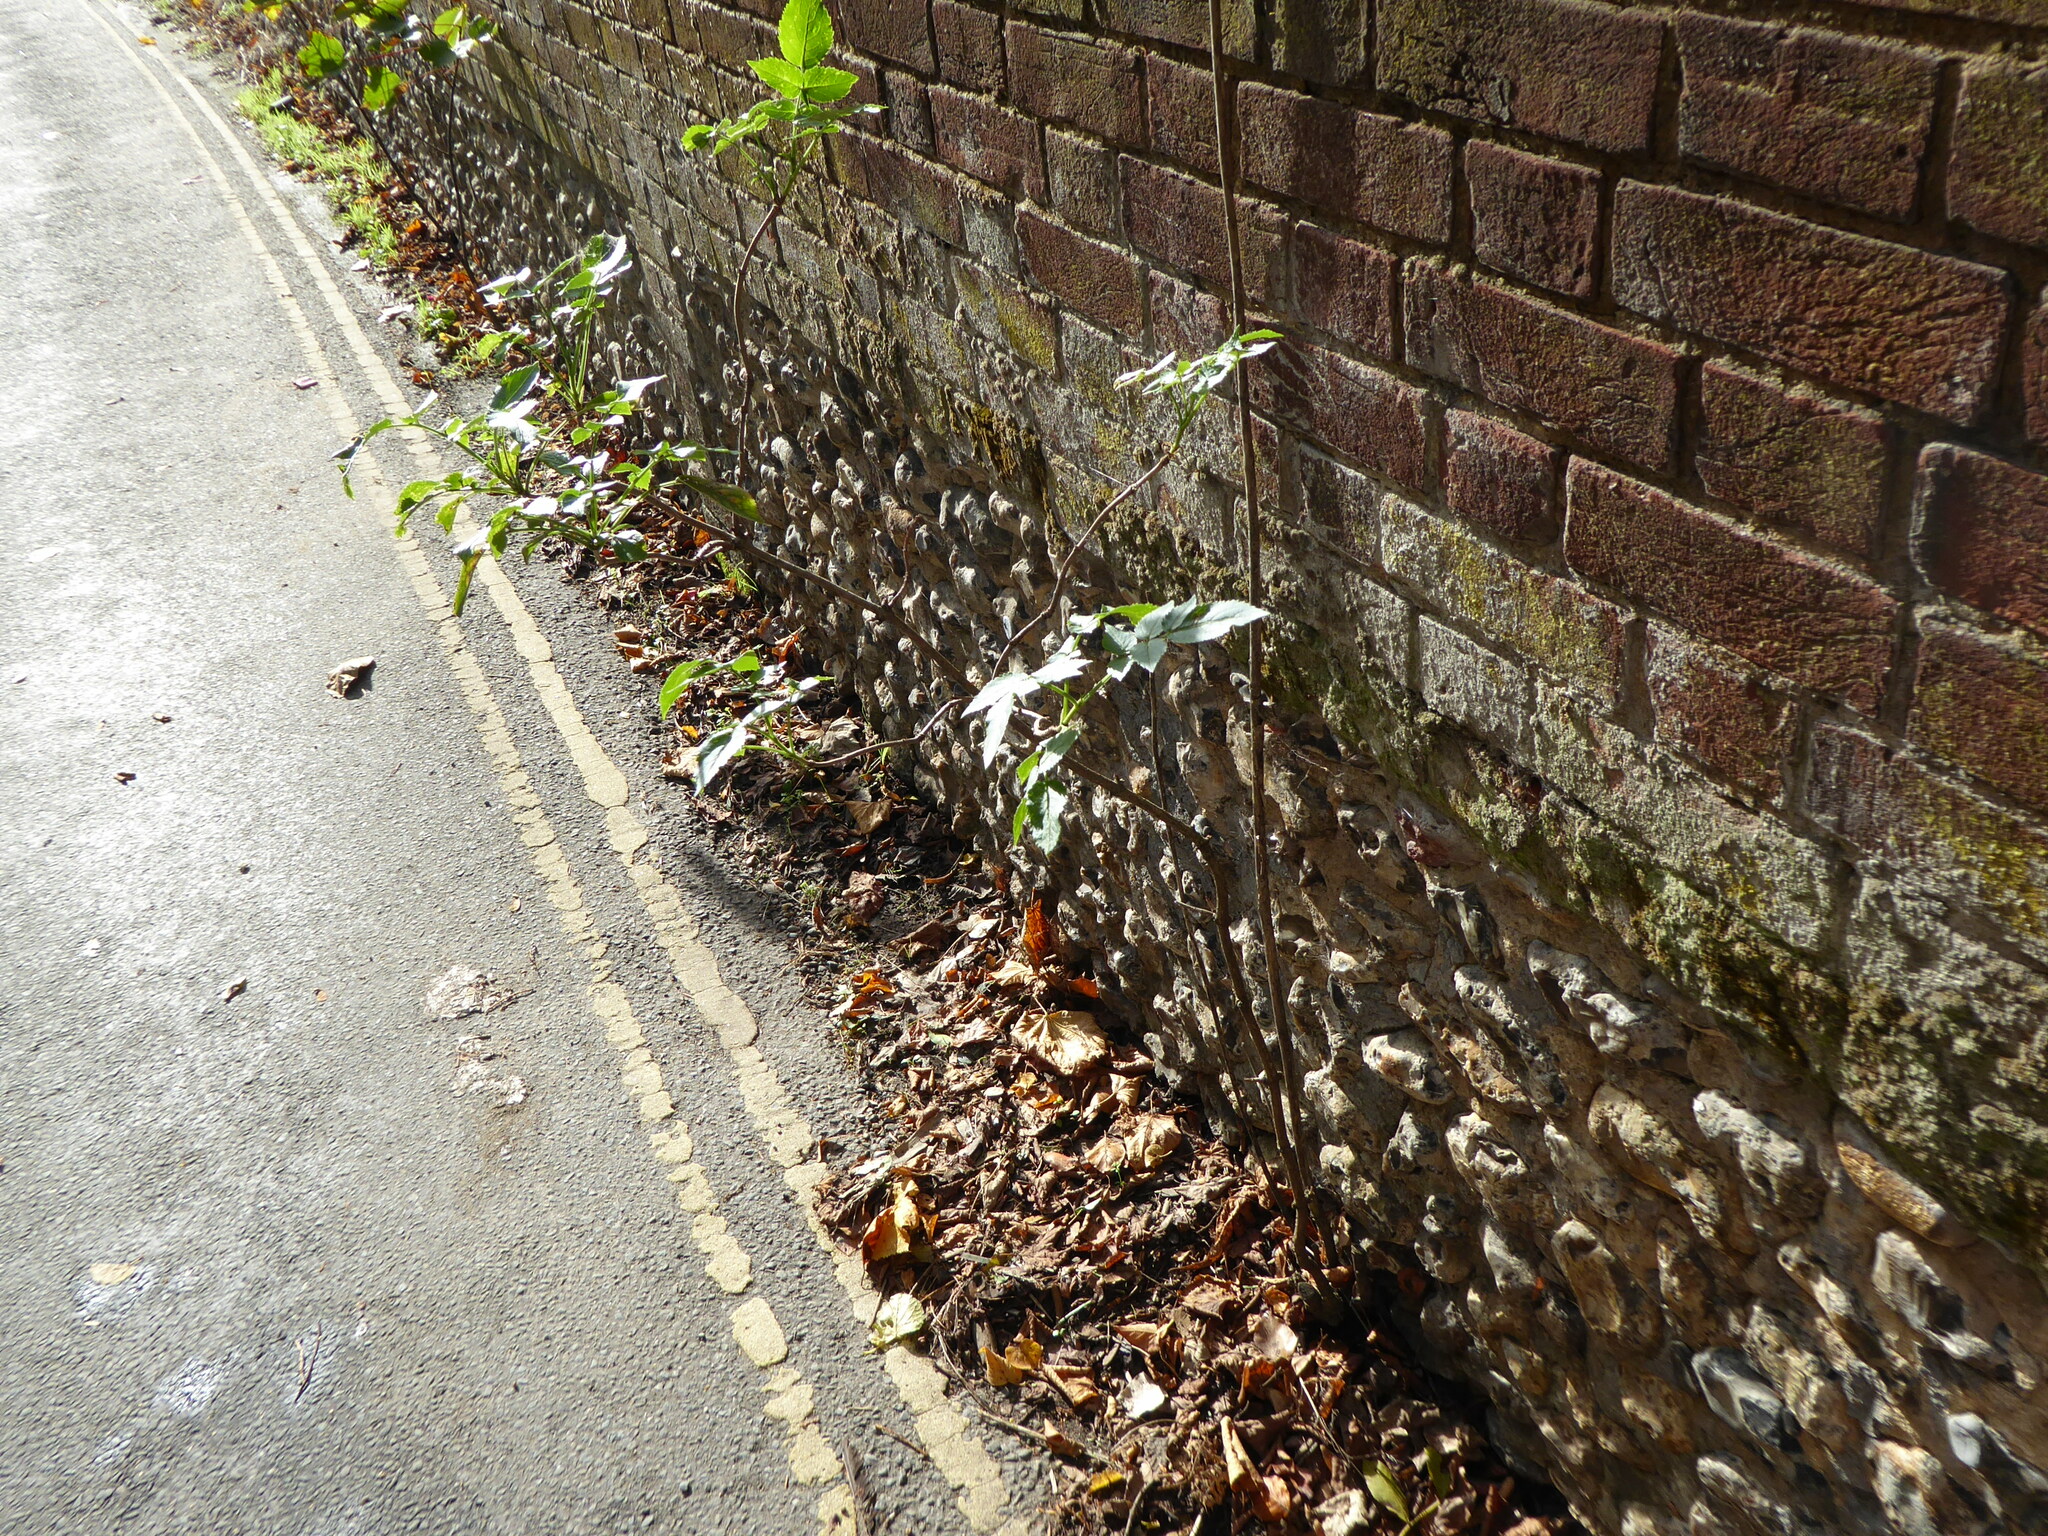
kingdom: Plantae
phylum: Tracheophyta
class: Magnoliopsida
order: Dipsacales
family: Viburnaceae
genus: Sambucus
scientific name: Sambucus nigra
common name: Elder
